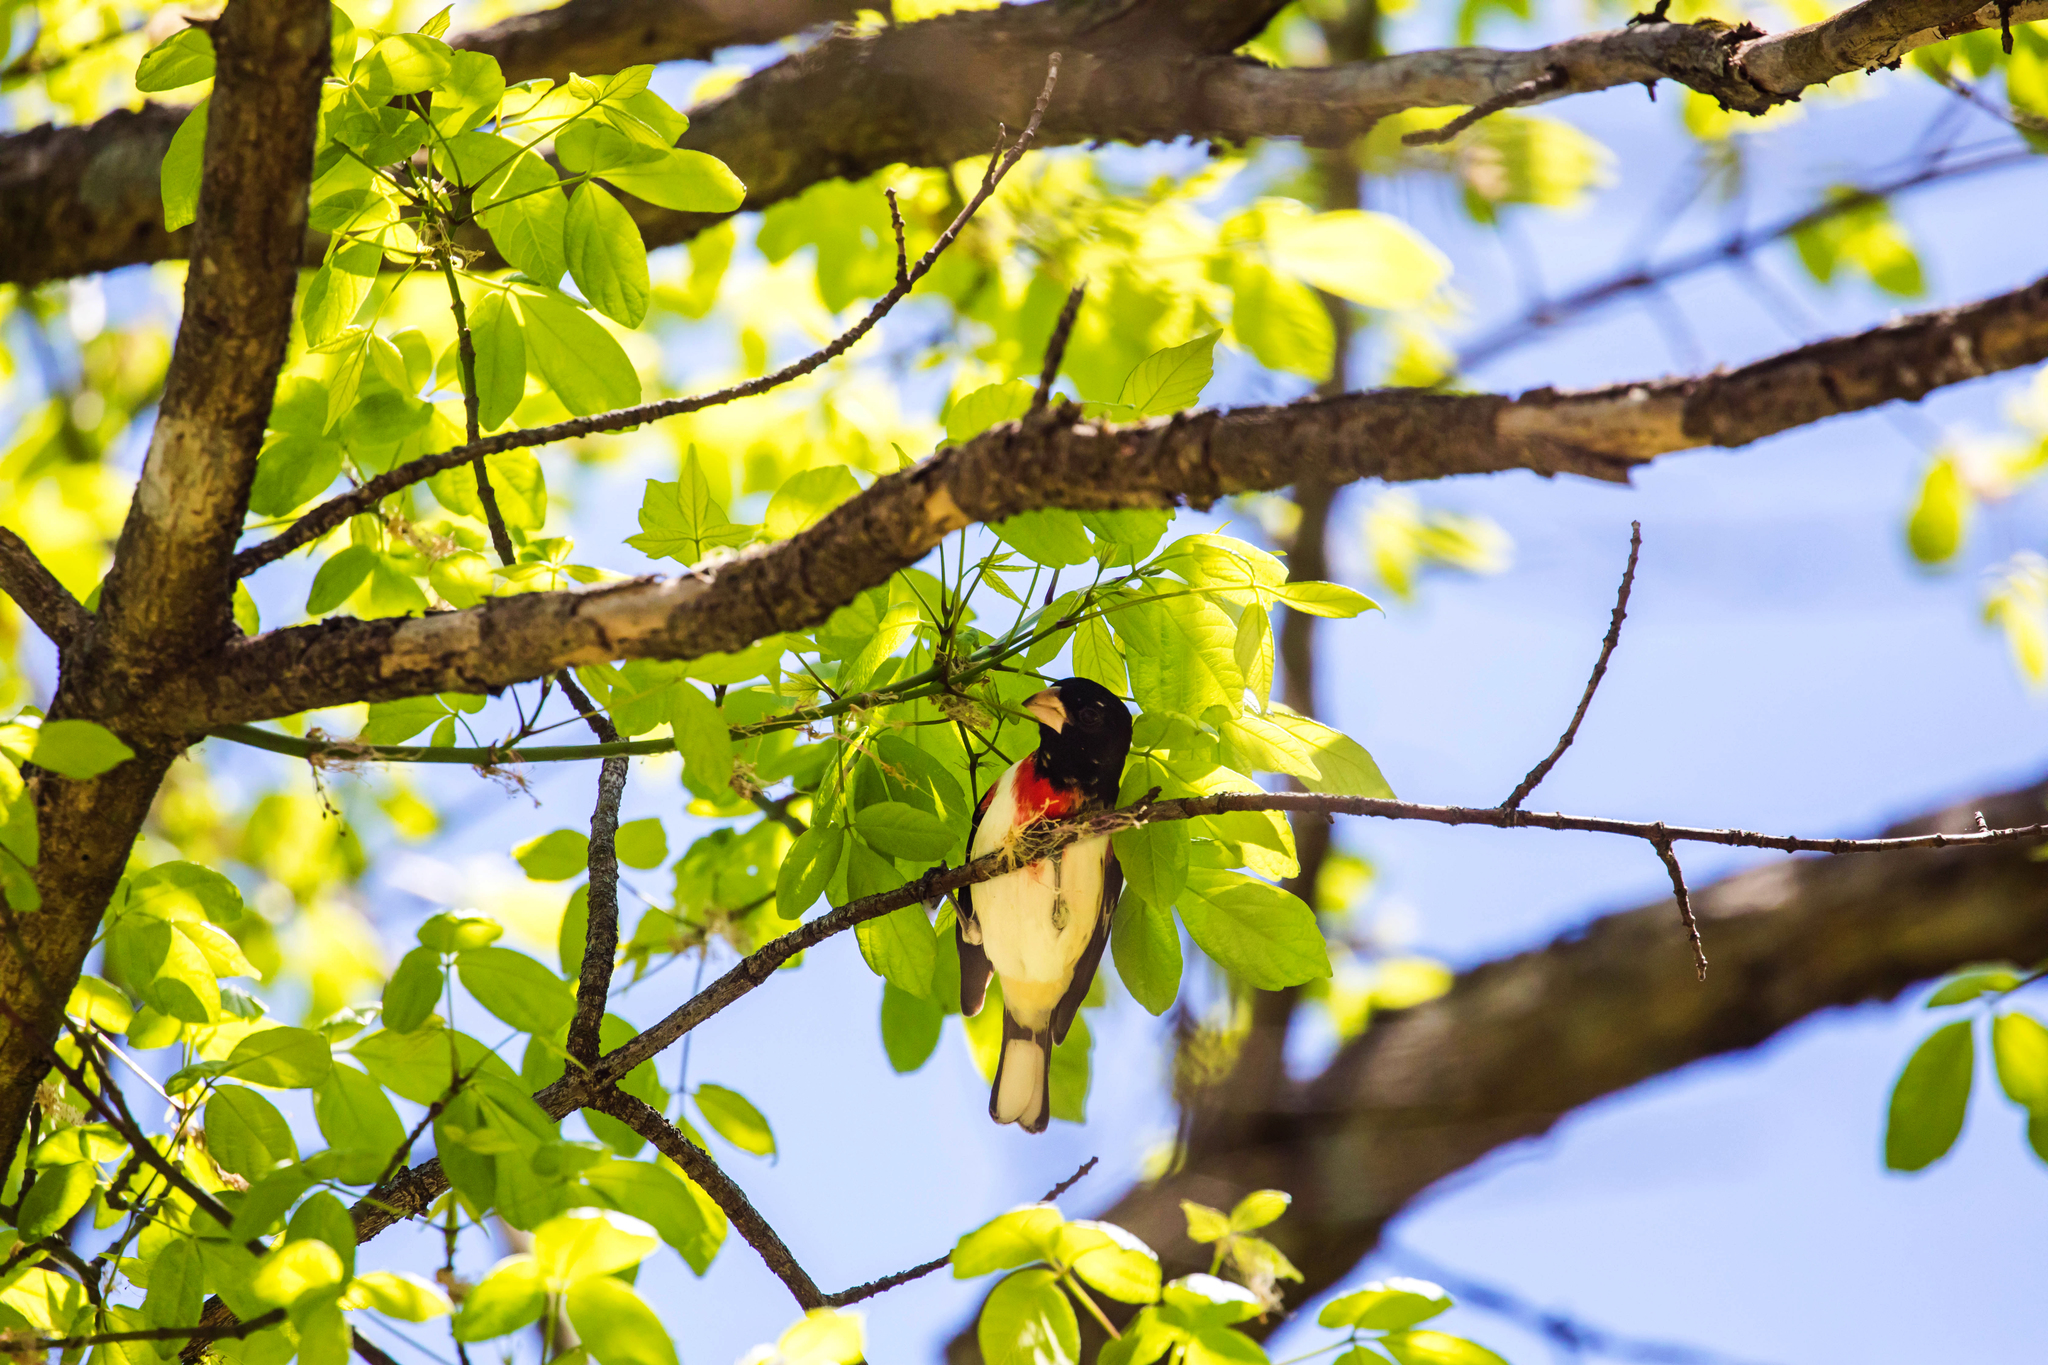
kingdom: Animalia
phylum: Chordata
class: Aves
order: Passeriformes
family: Cardinalidae
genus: Pheucticus
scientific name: Pheucticus ludovicianus
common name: Rose-breasted grosbeak
